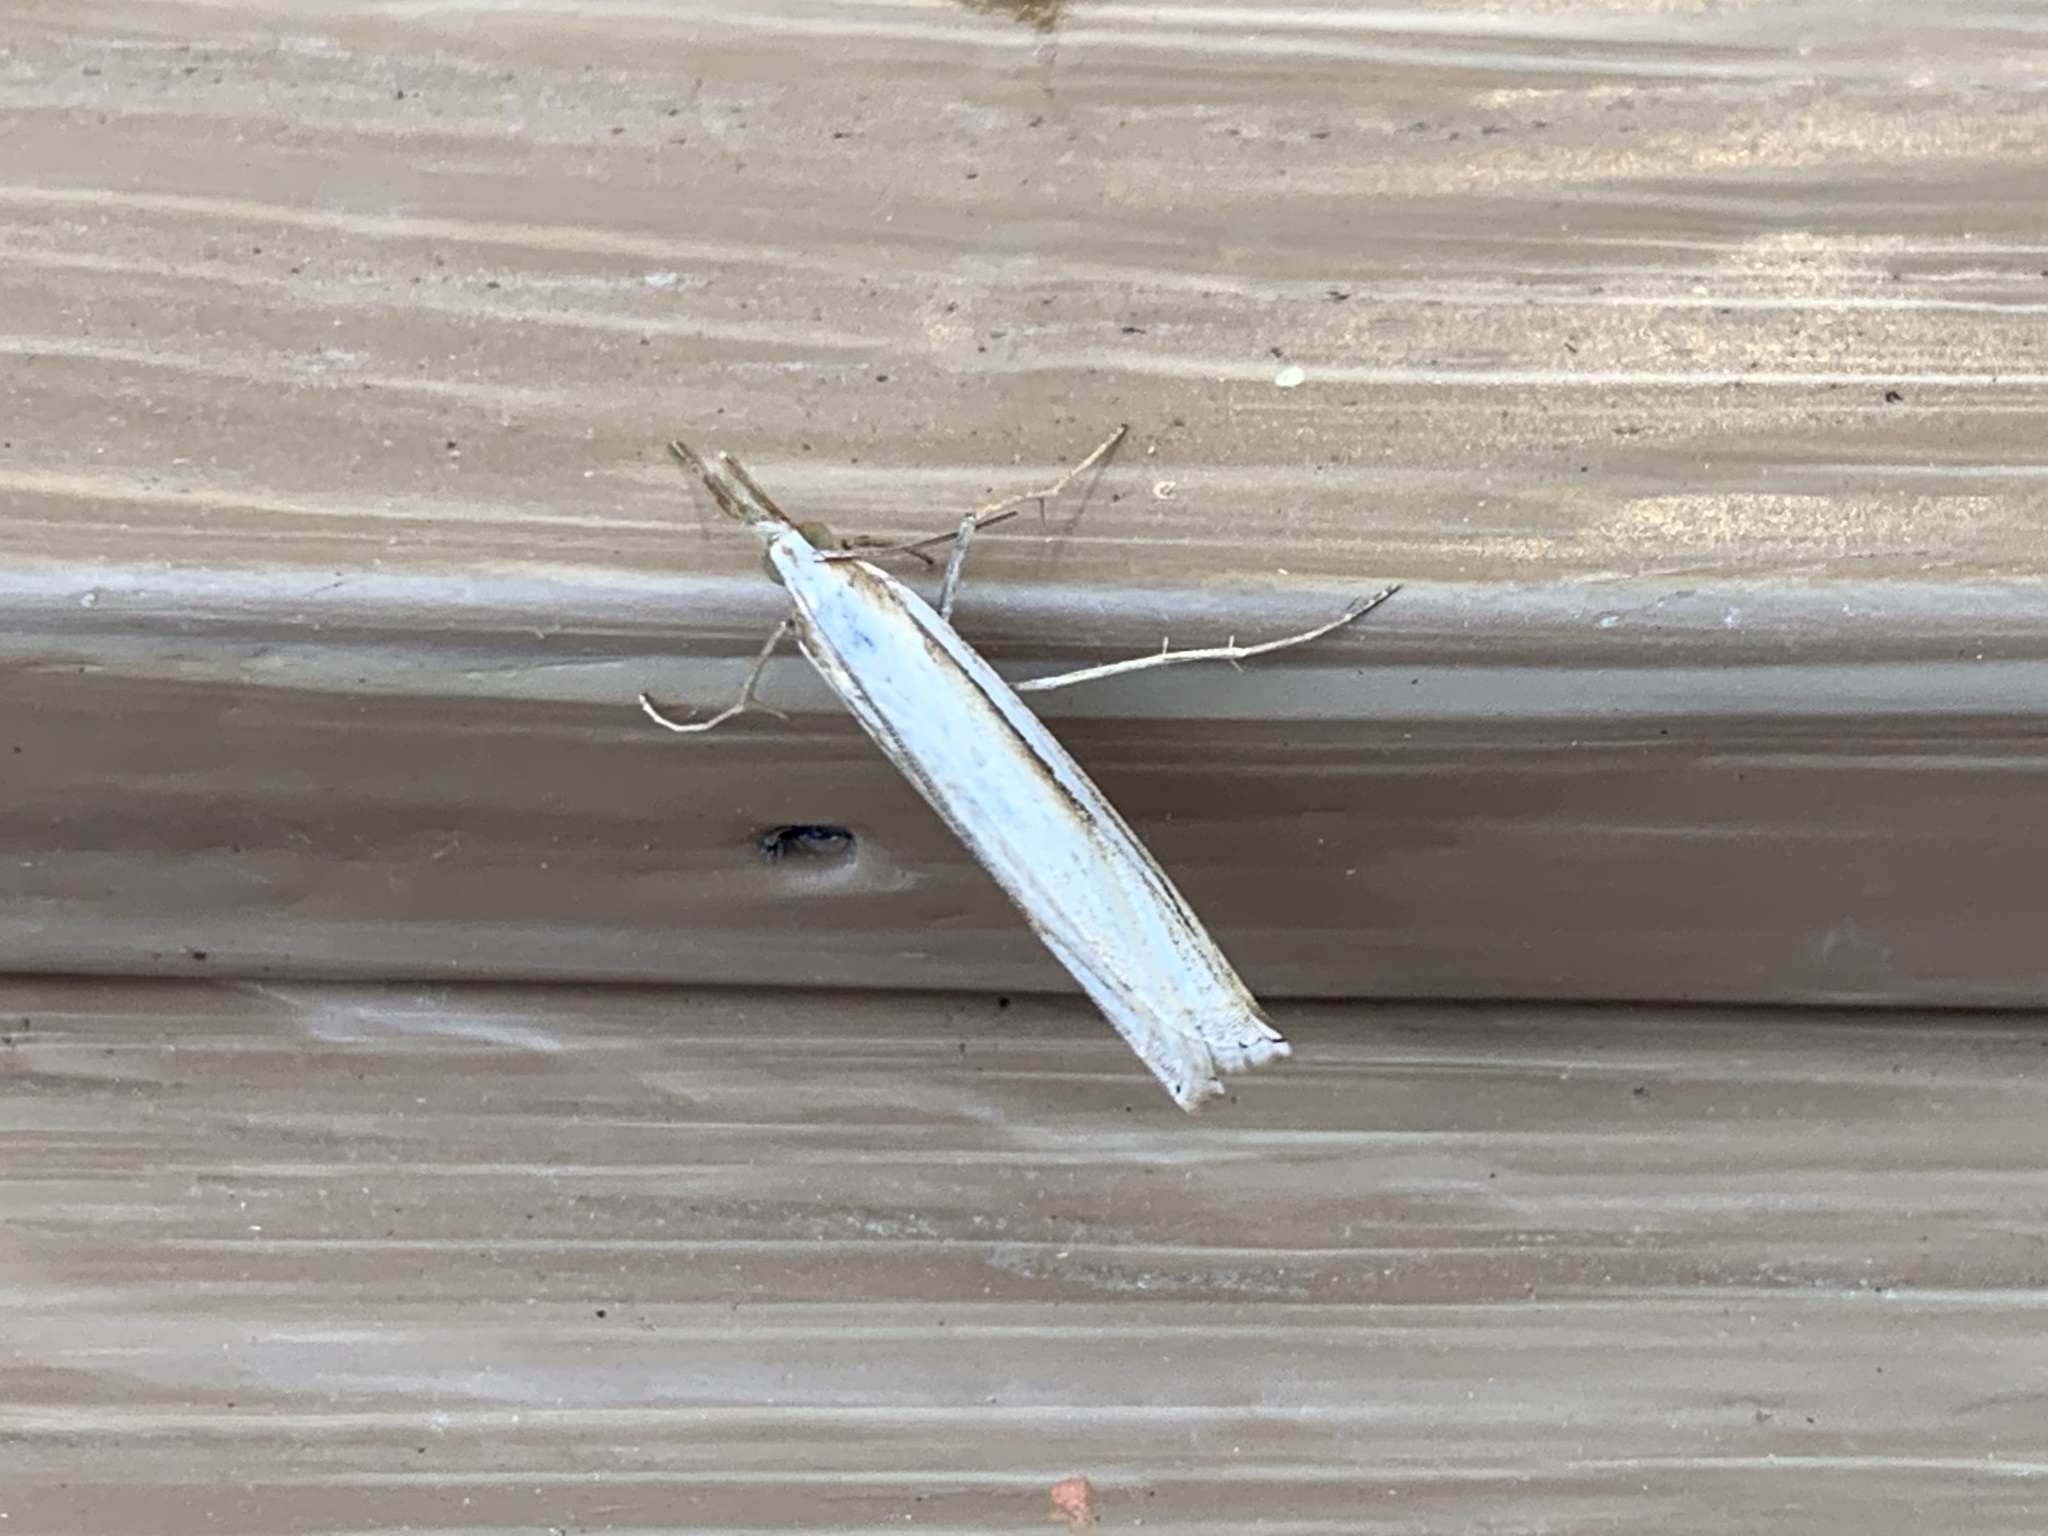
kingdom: Animalia
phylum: Arthropoda
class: Insecta
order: Lepidoptera
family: Crambidae
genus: Crambus
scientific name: Crambus sargentellus
